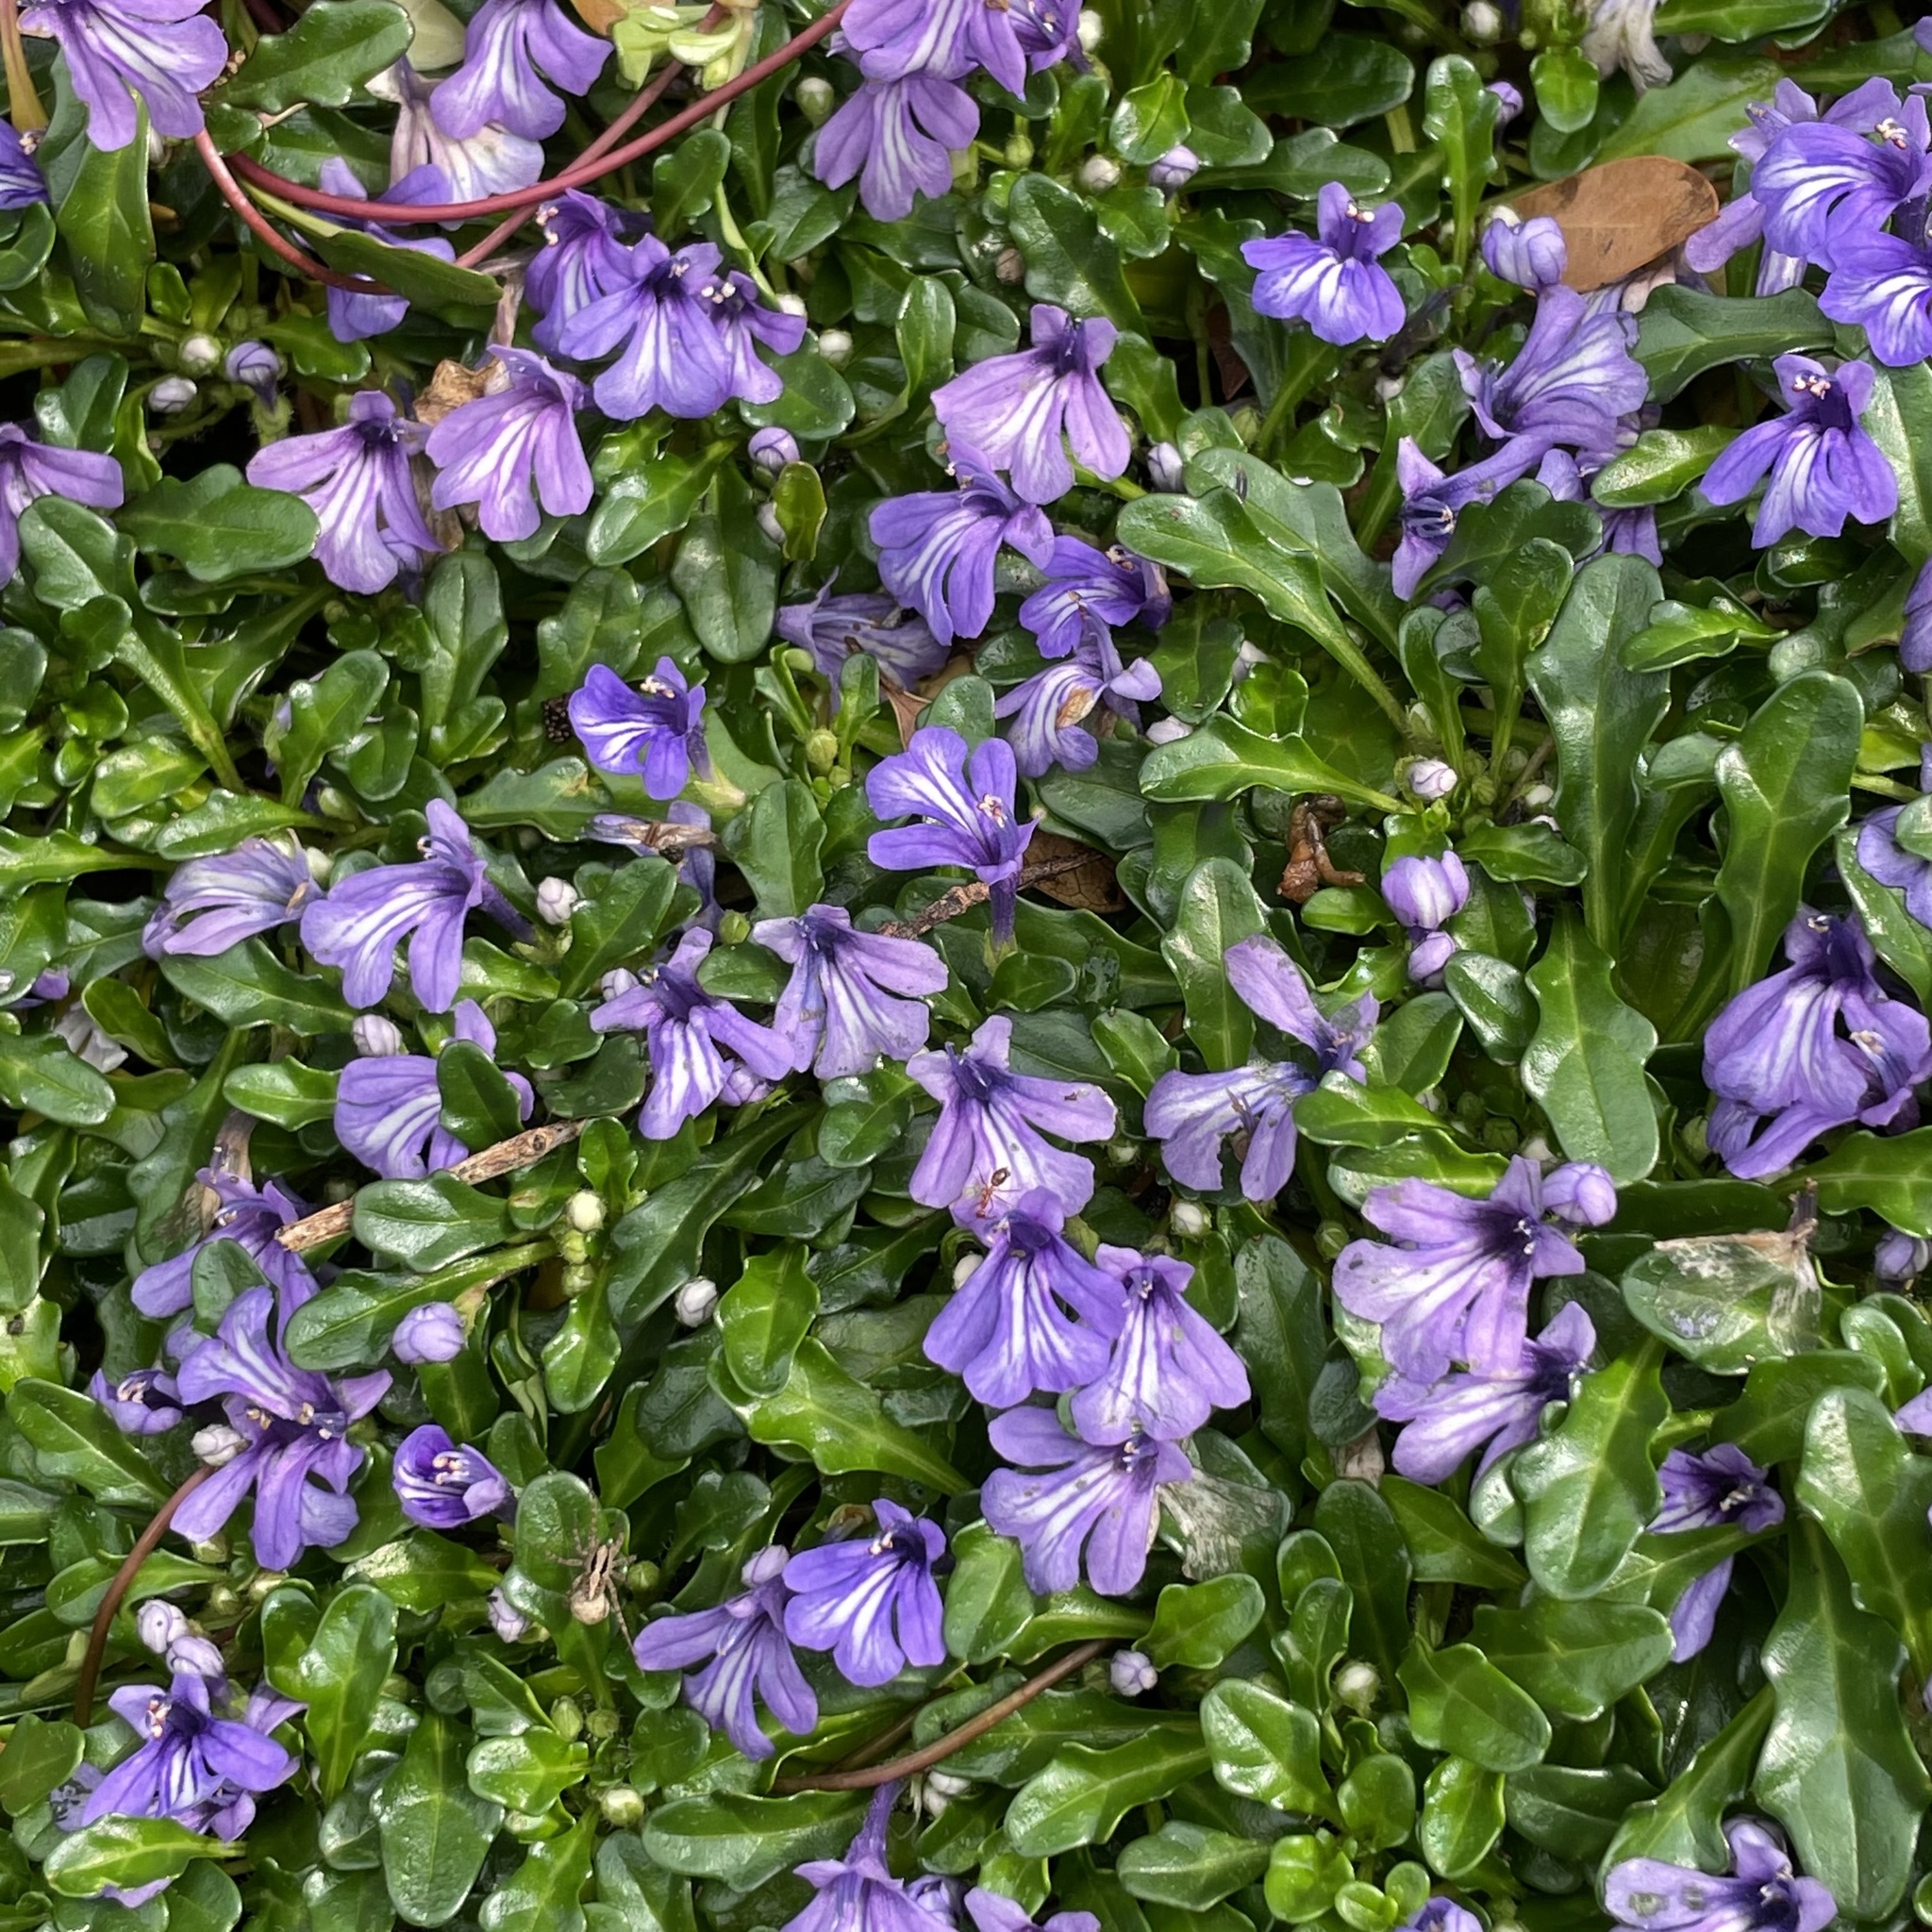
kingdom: Plantae
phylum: Tracheophyta
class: Magnoliopsida
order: Lamiales
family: Lamiaceae
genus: Ajuga
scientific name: Ajuga pygmaea
